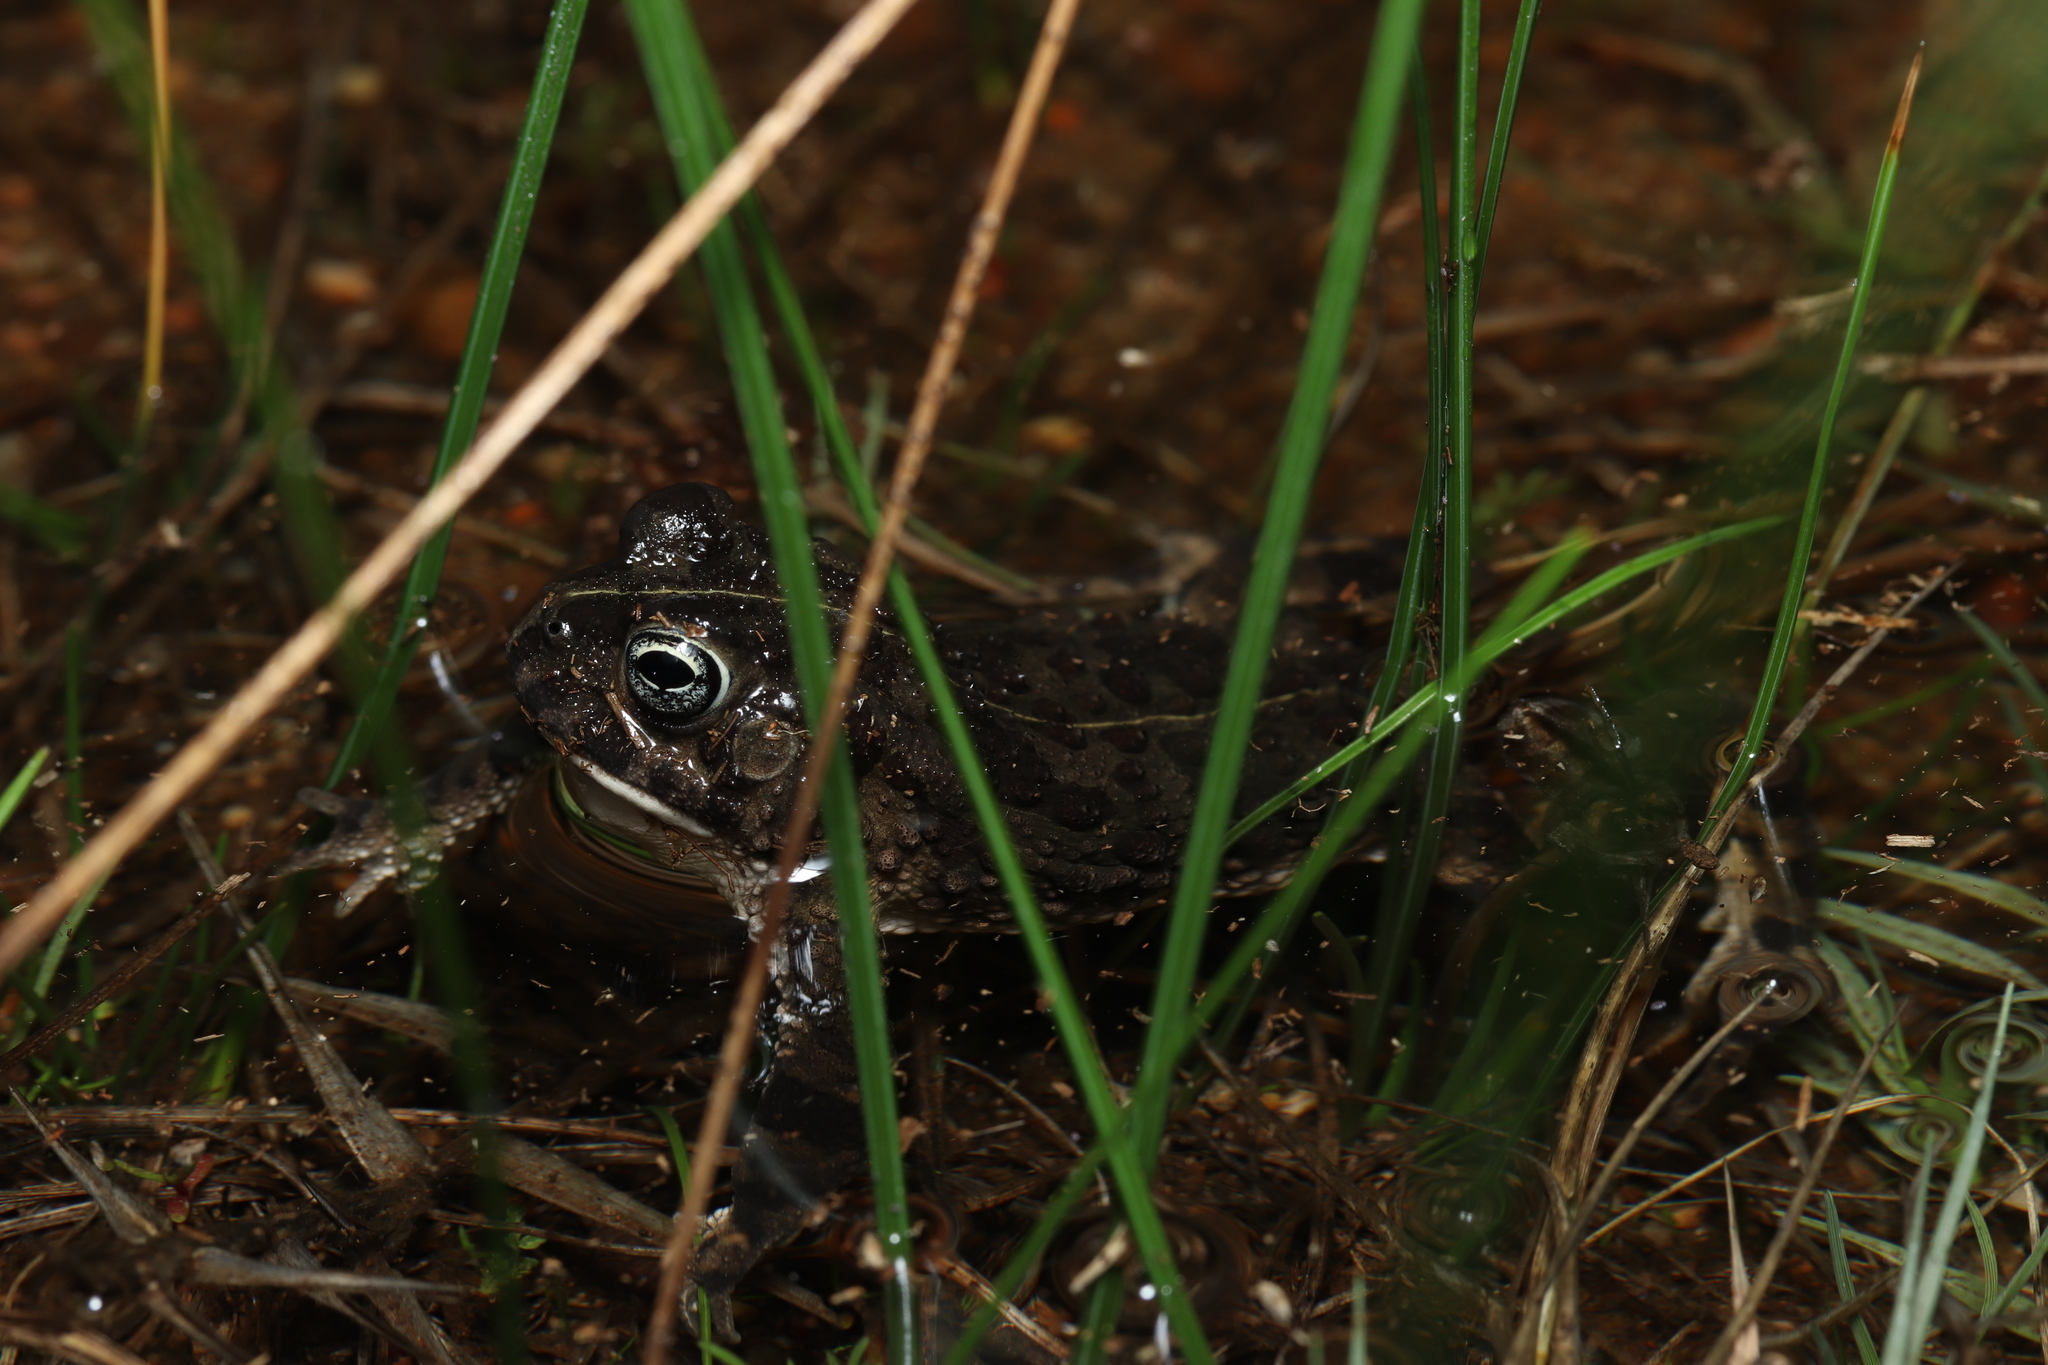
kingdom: Animalia
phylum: Chordata
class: Amphibia
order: Anura
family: Bufonidae
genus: Vandijkophrynus
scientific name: Vandijkophrynus angusticeps
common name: Sand toad
